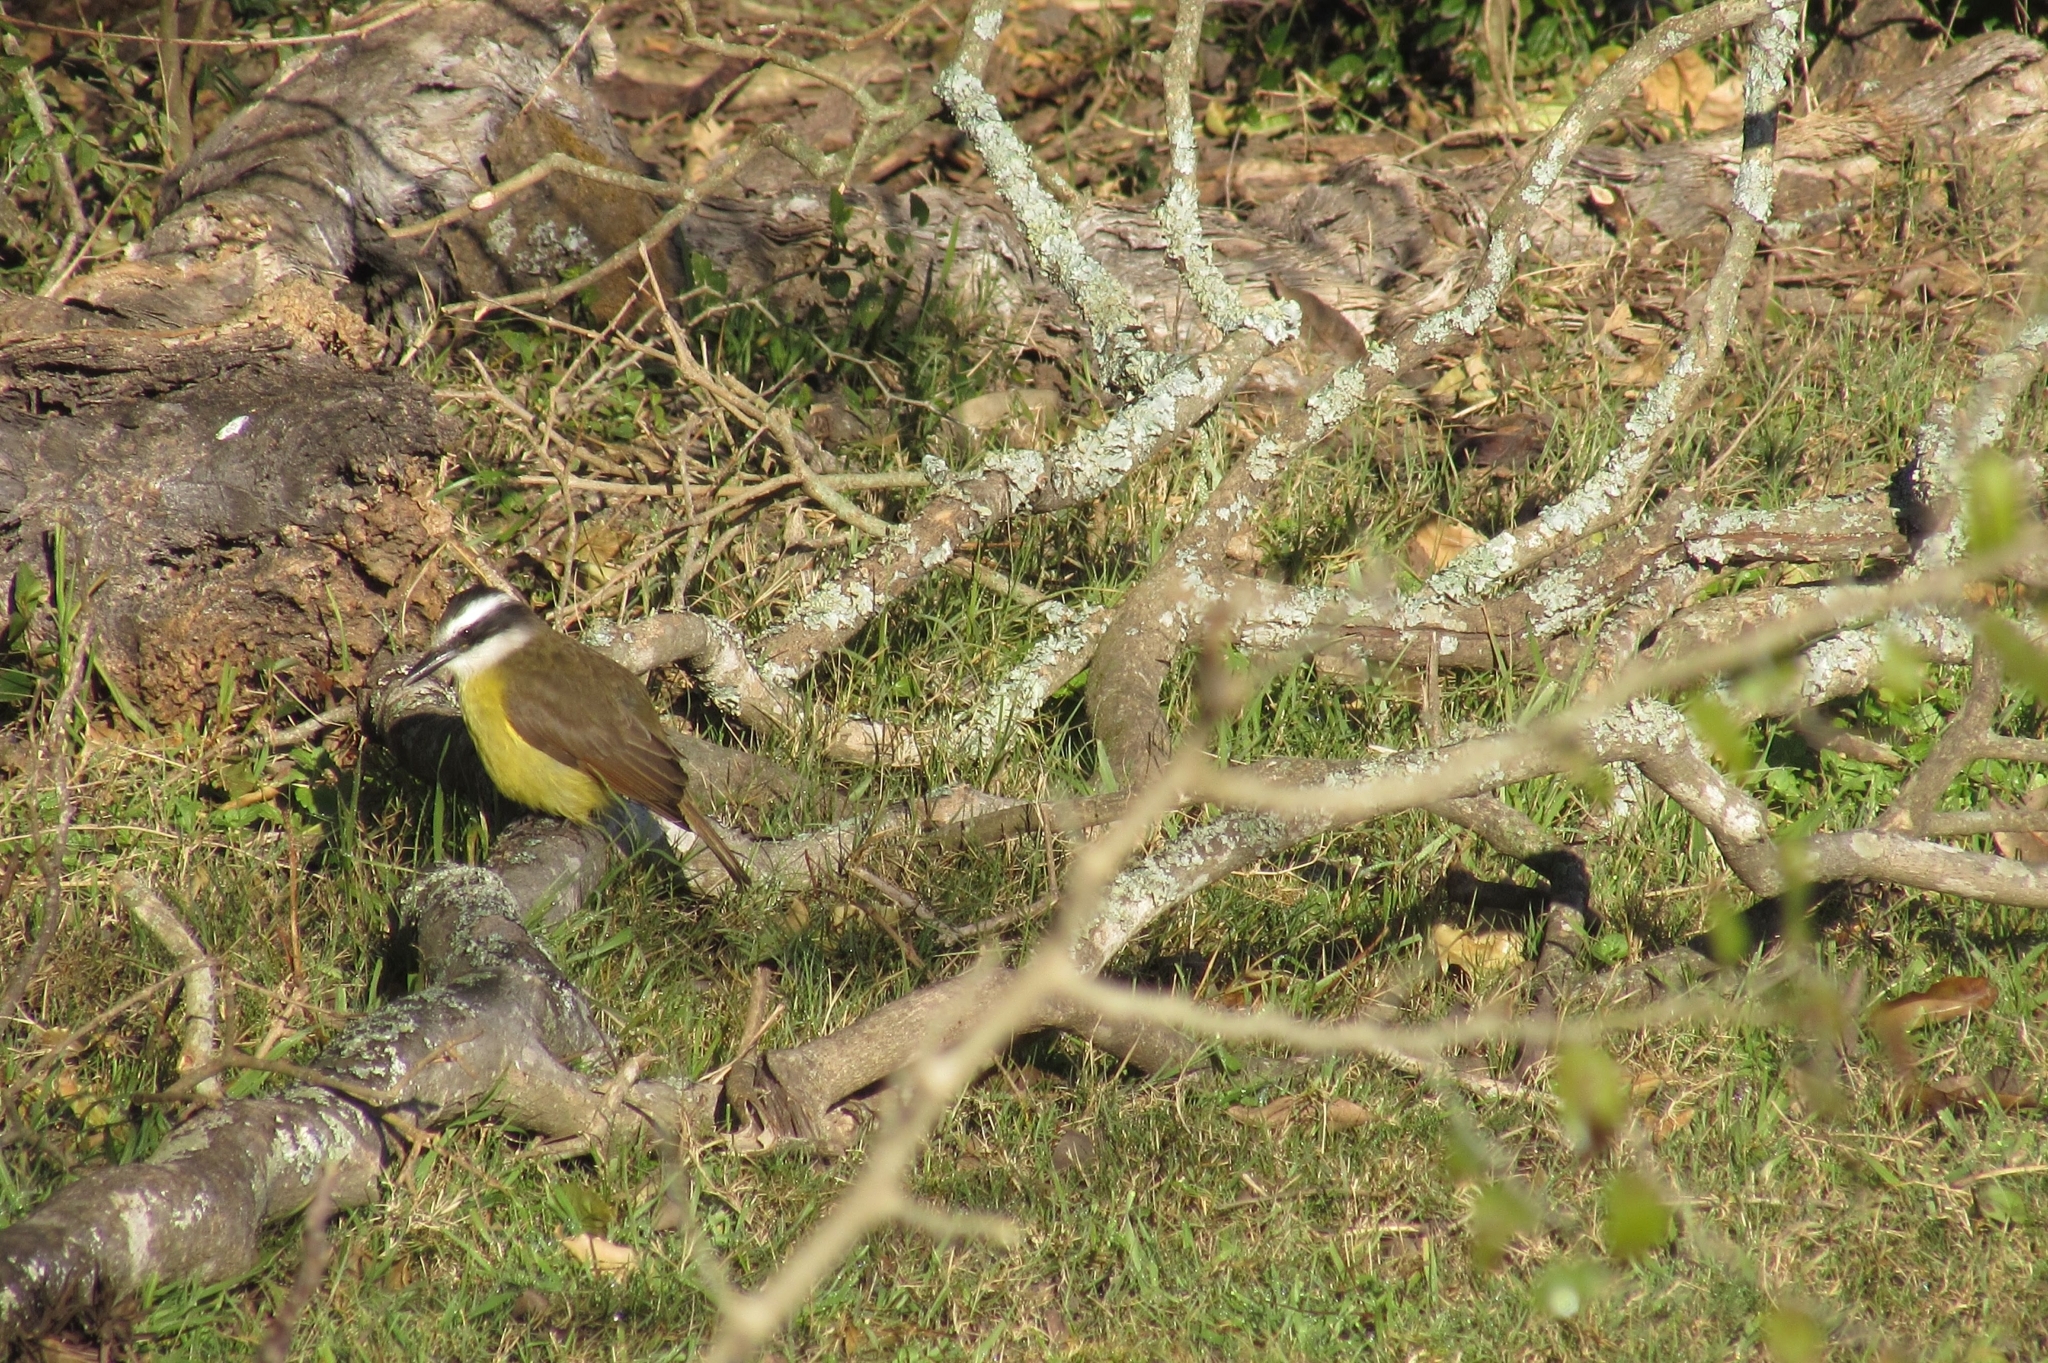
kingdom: Animalia
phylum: Chordata
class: Aves
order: Passeriformes
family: Tyrannidae
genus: Pitangus
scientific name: Pitangus sulphuratus
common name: Great kiskadee
